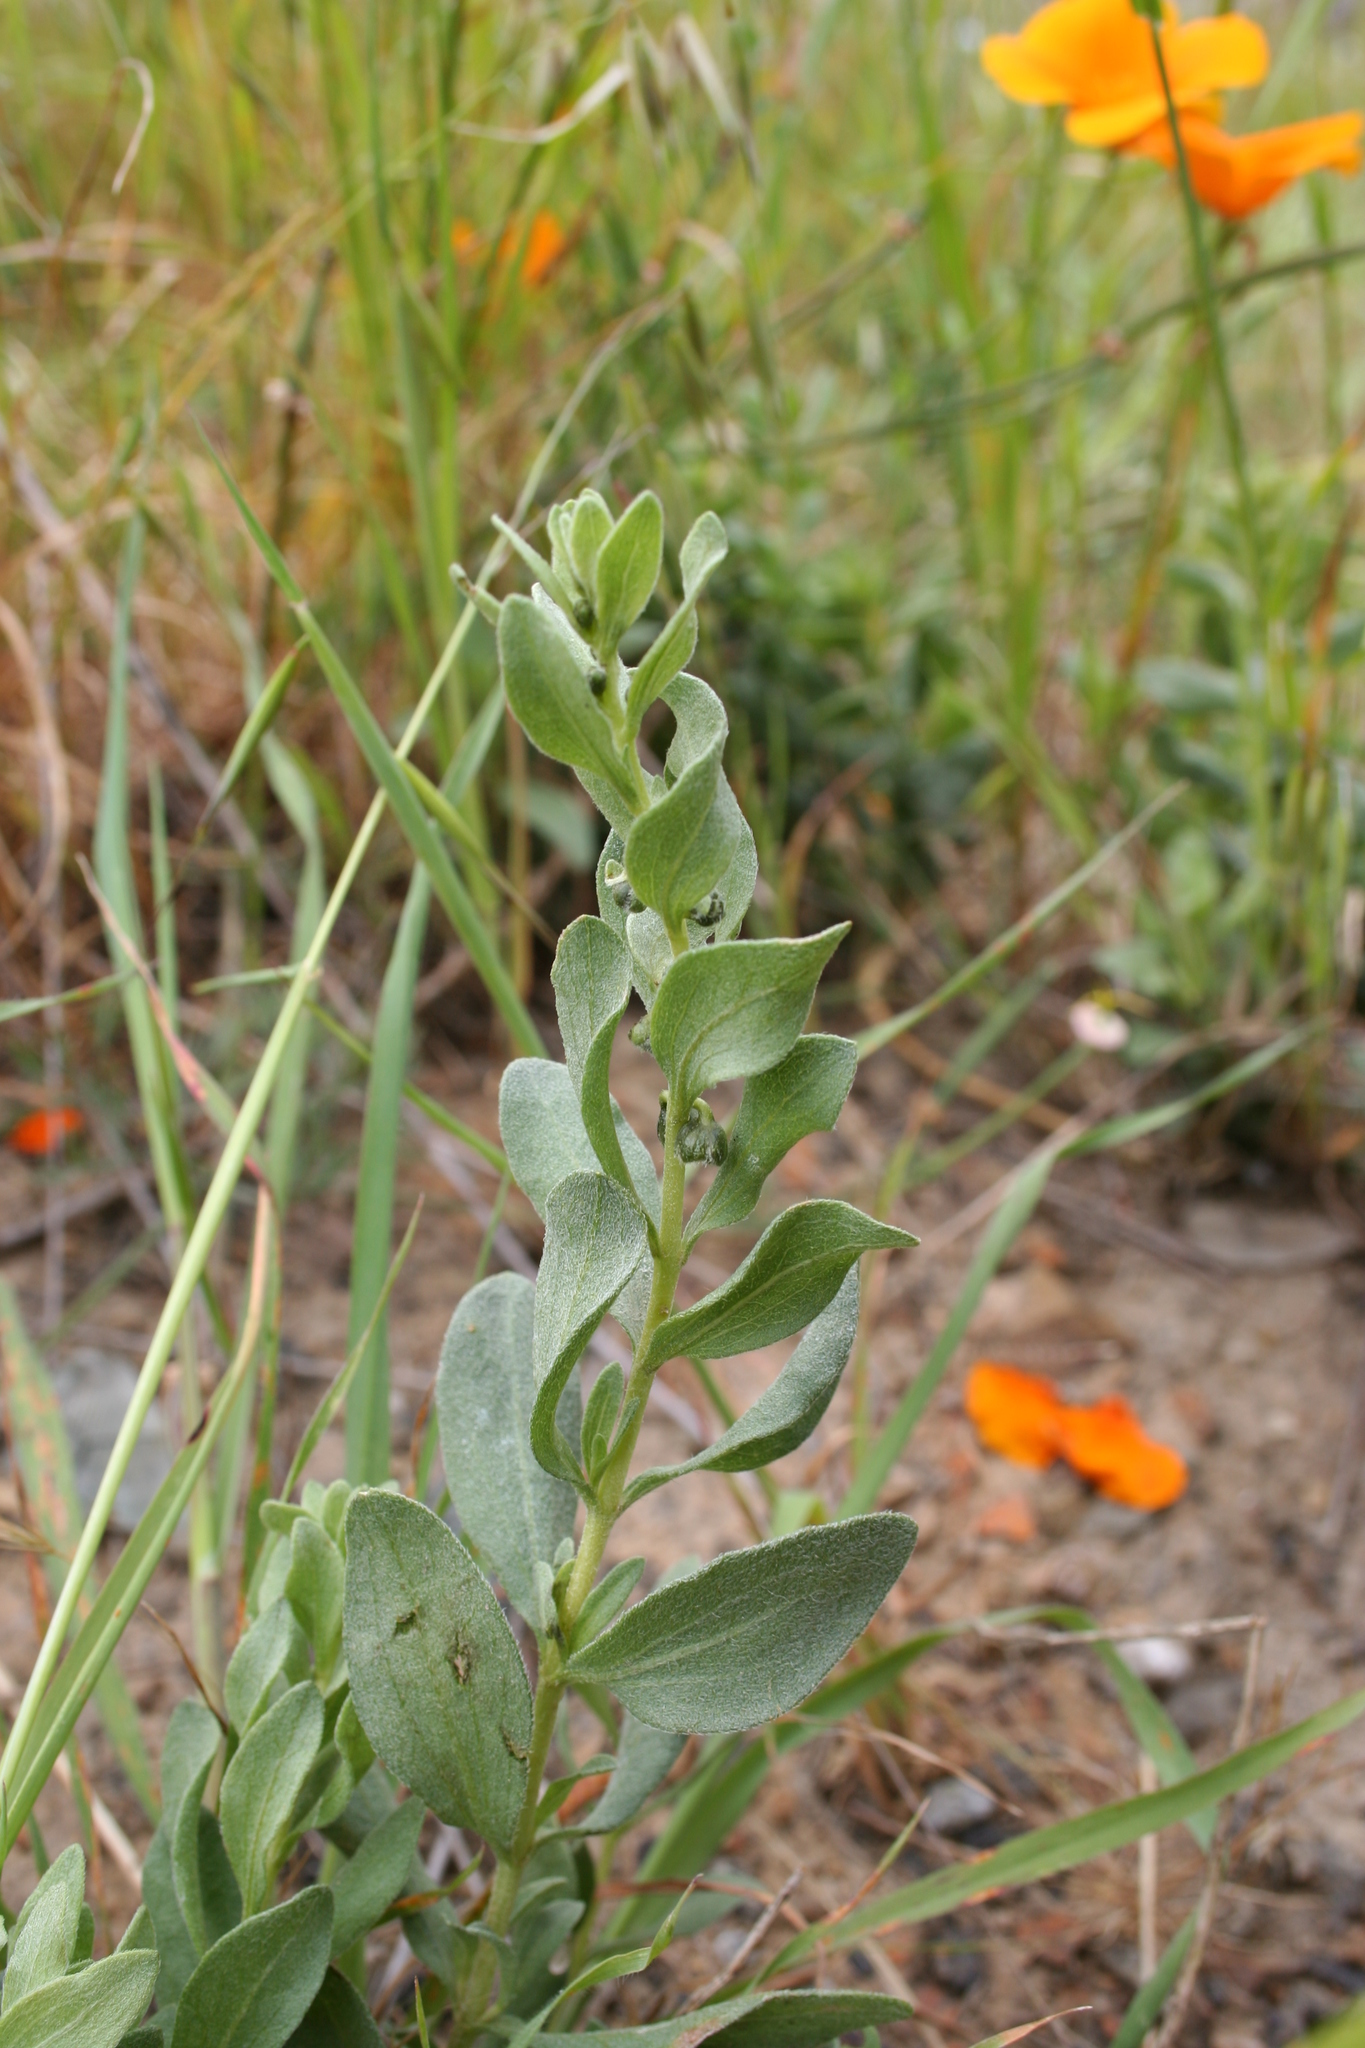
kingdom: Plantae
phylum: Tracheophyta
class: Magnoliopsida
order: Asterales
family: Asteraceae
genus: Iva
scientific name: Iva axillaris
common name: Poverty sumpweed
